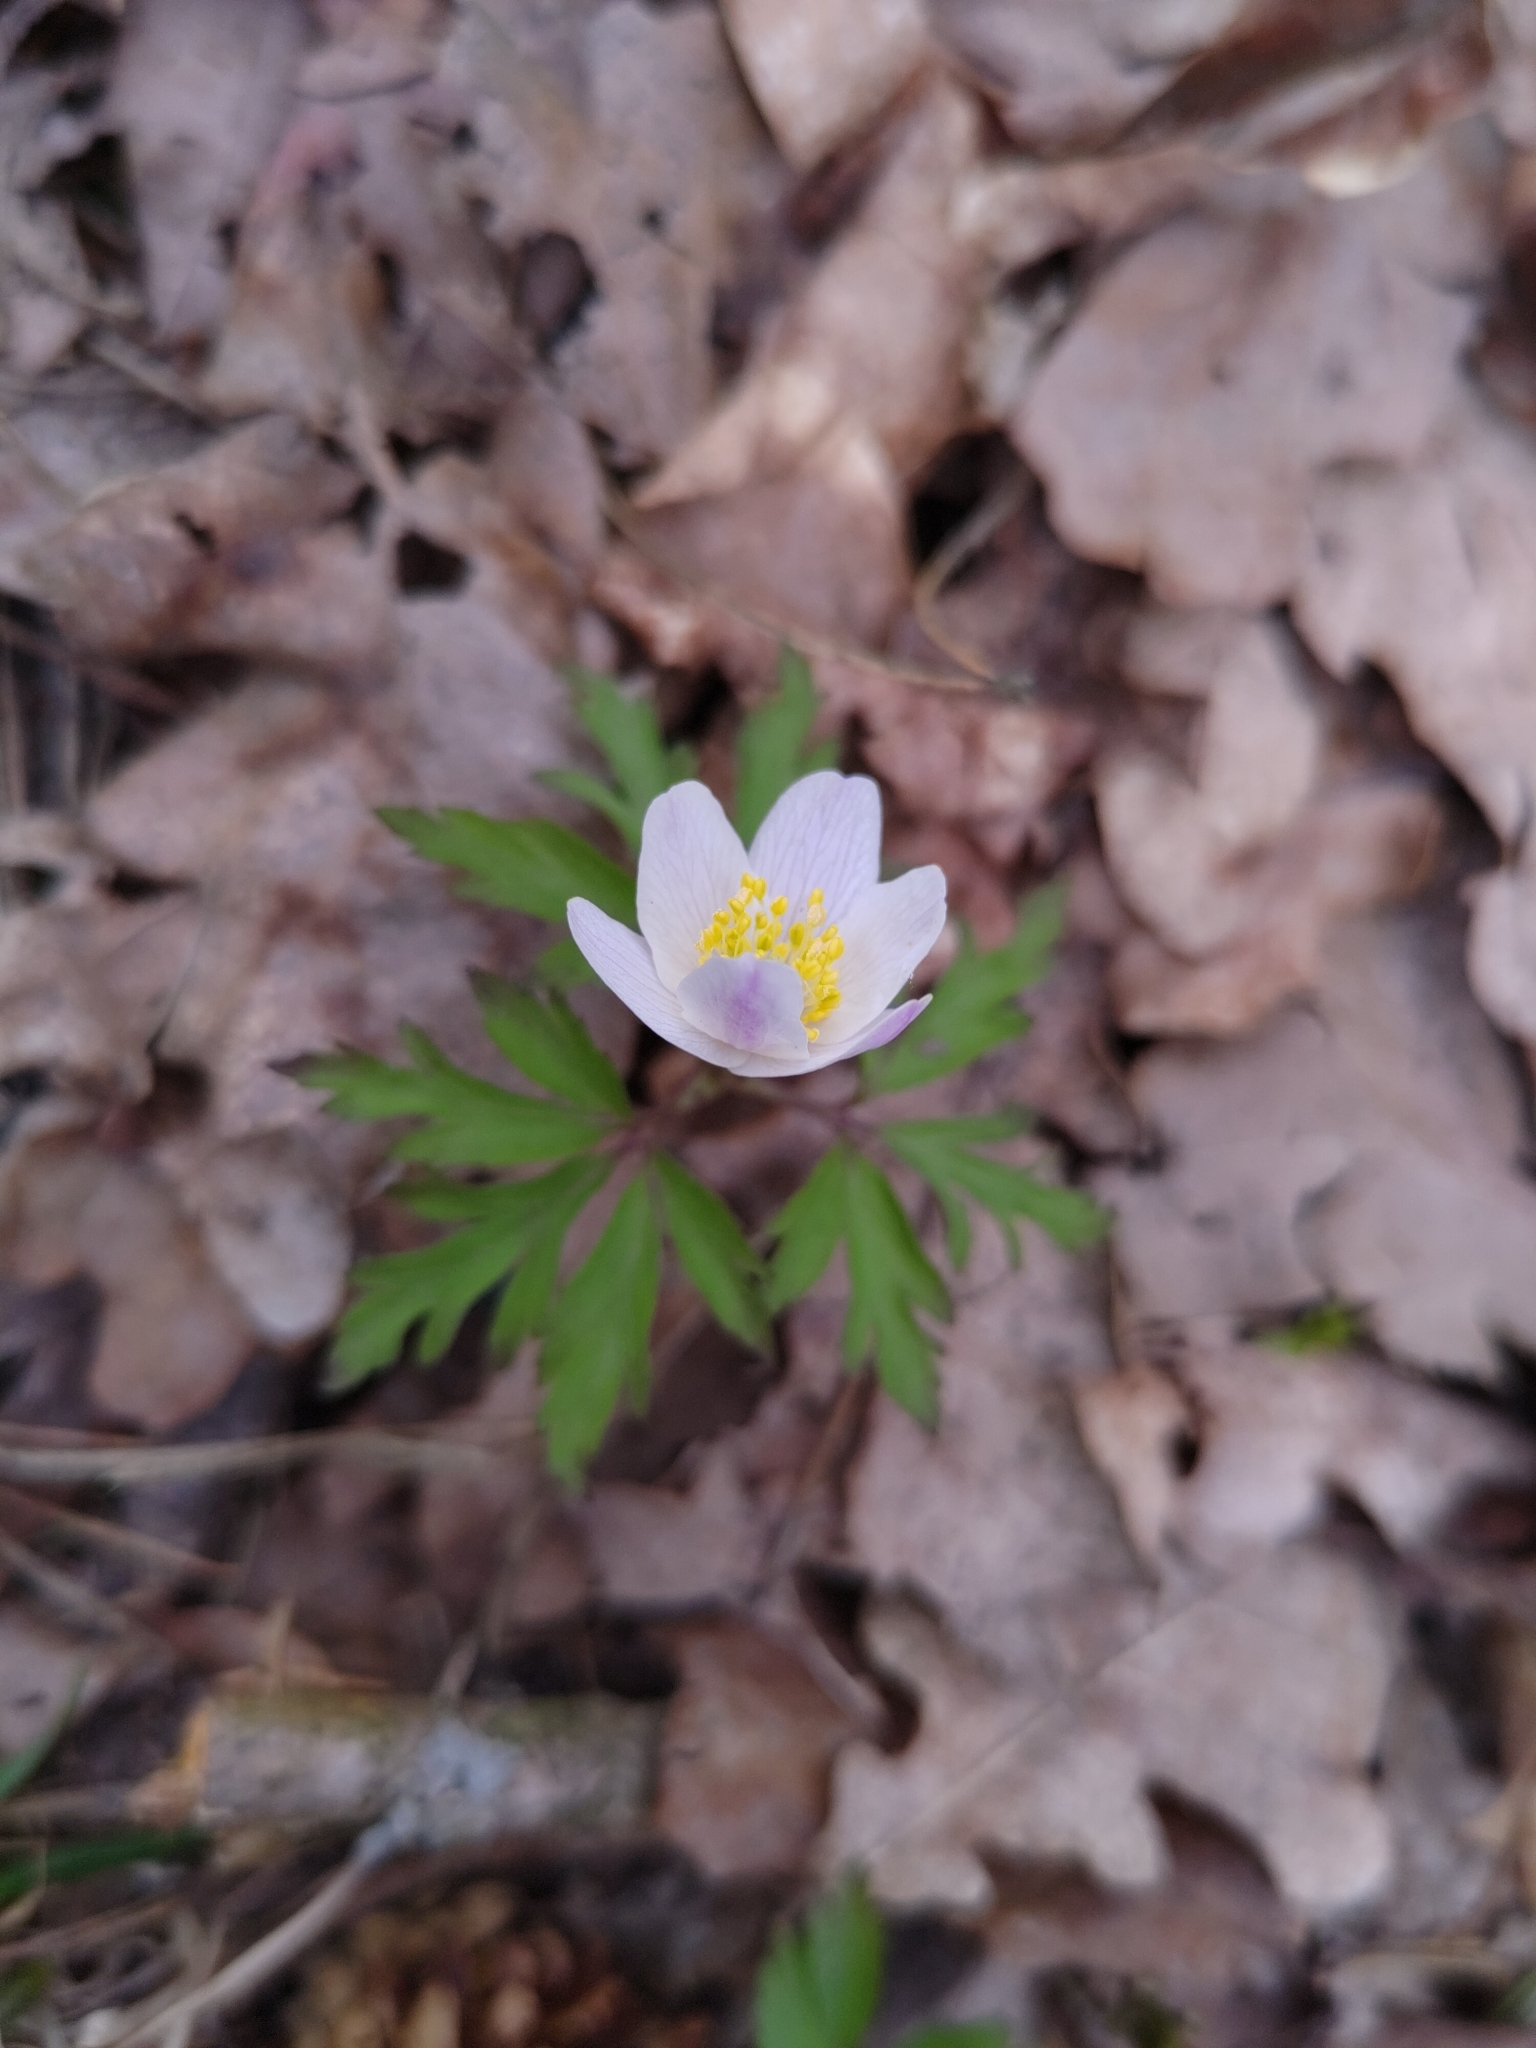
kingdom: Plantae
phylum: Tracheophyta
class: Magnoliopsida
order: Ranunculales
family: Ranunculaceae
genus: Anemone
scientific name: Anemone nemorosa
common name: Wood anemone
